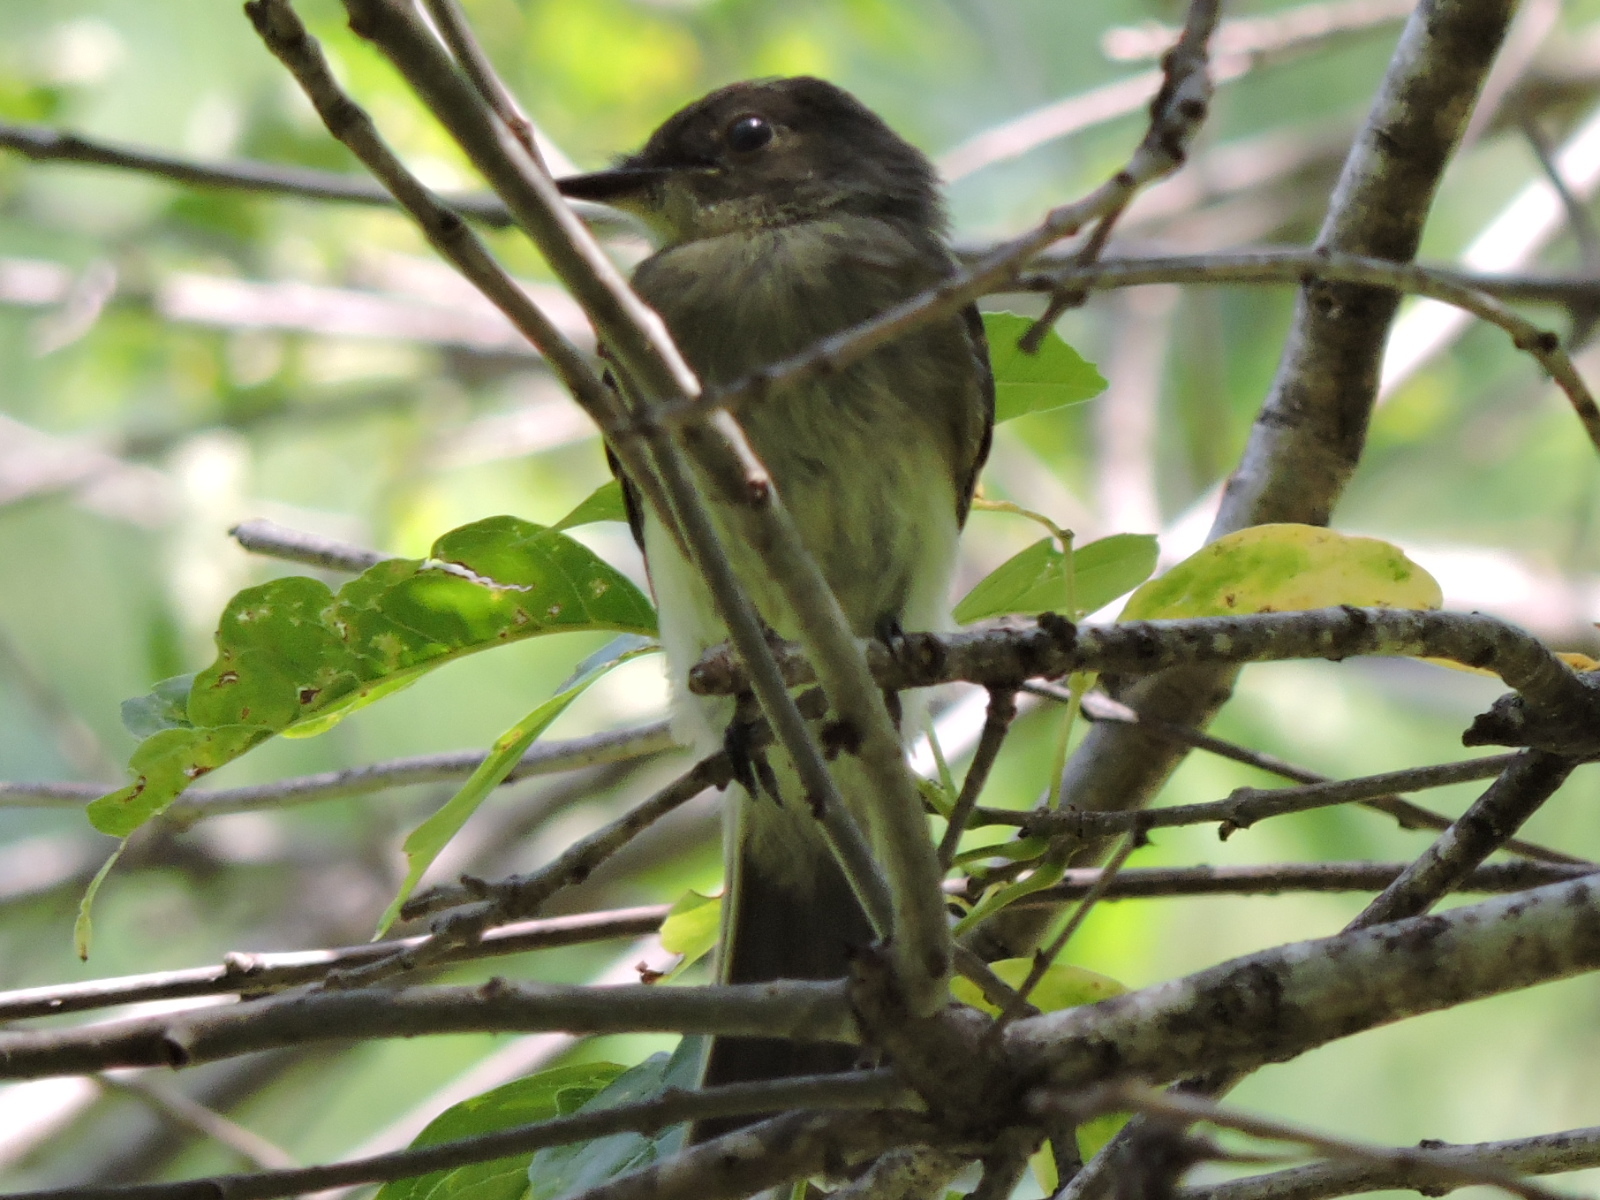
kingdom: Animalia
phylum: Chordata
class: Aves
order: Passeriformes
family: Tyrannidae
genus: Sayornis
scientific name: Sayornis phoebe
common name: Eastern phoebe
